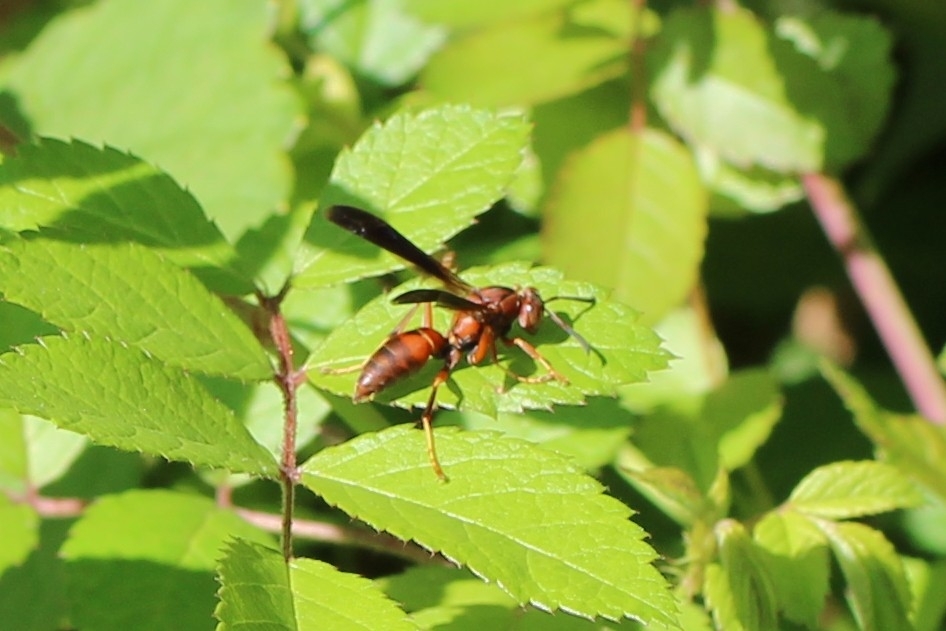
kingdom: Animalia
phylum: Arthropoda
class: Insecta
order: Hymenoptera
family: Vespidae
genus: Fuscopolistes
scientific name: Fuscopolistes
